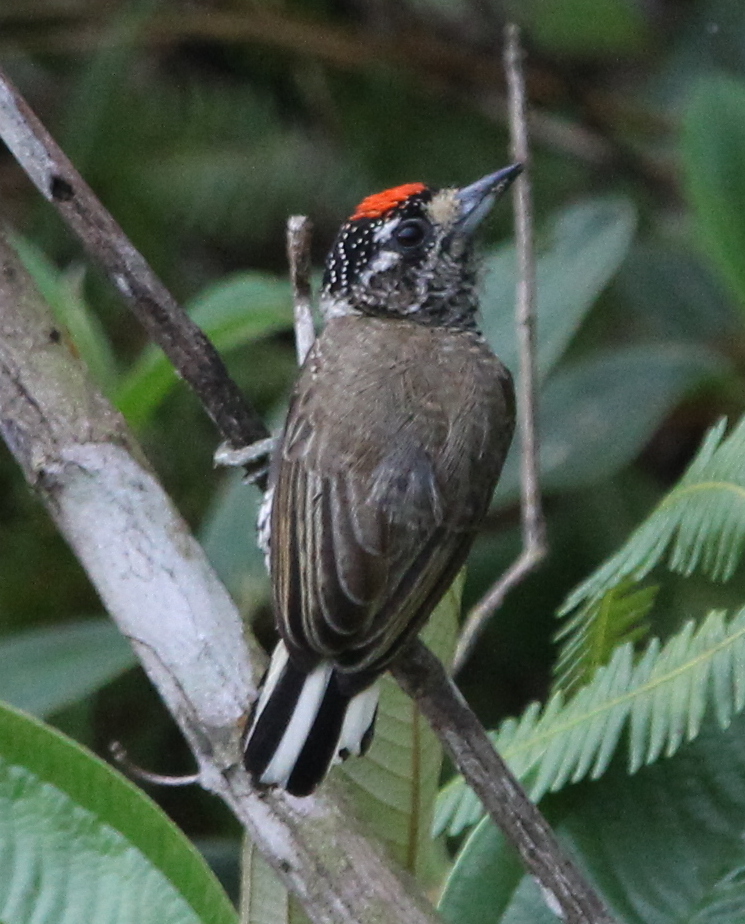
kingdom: Animalia
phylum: Chordata
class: Aves
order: Piciformes
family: Picidae
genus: Picumnus
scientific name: Picumnus cirratus
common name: White-barred piculet
